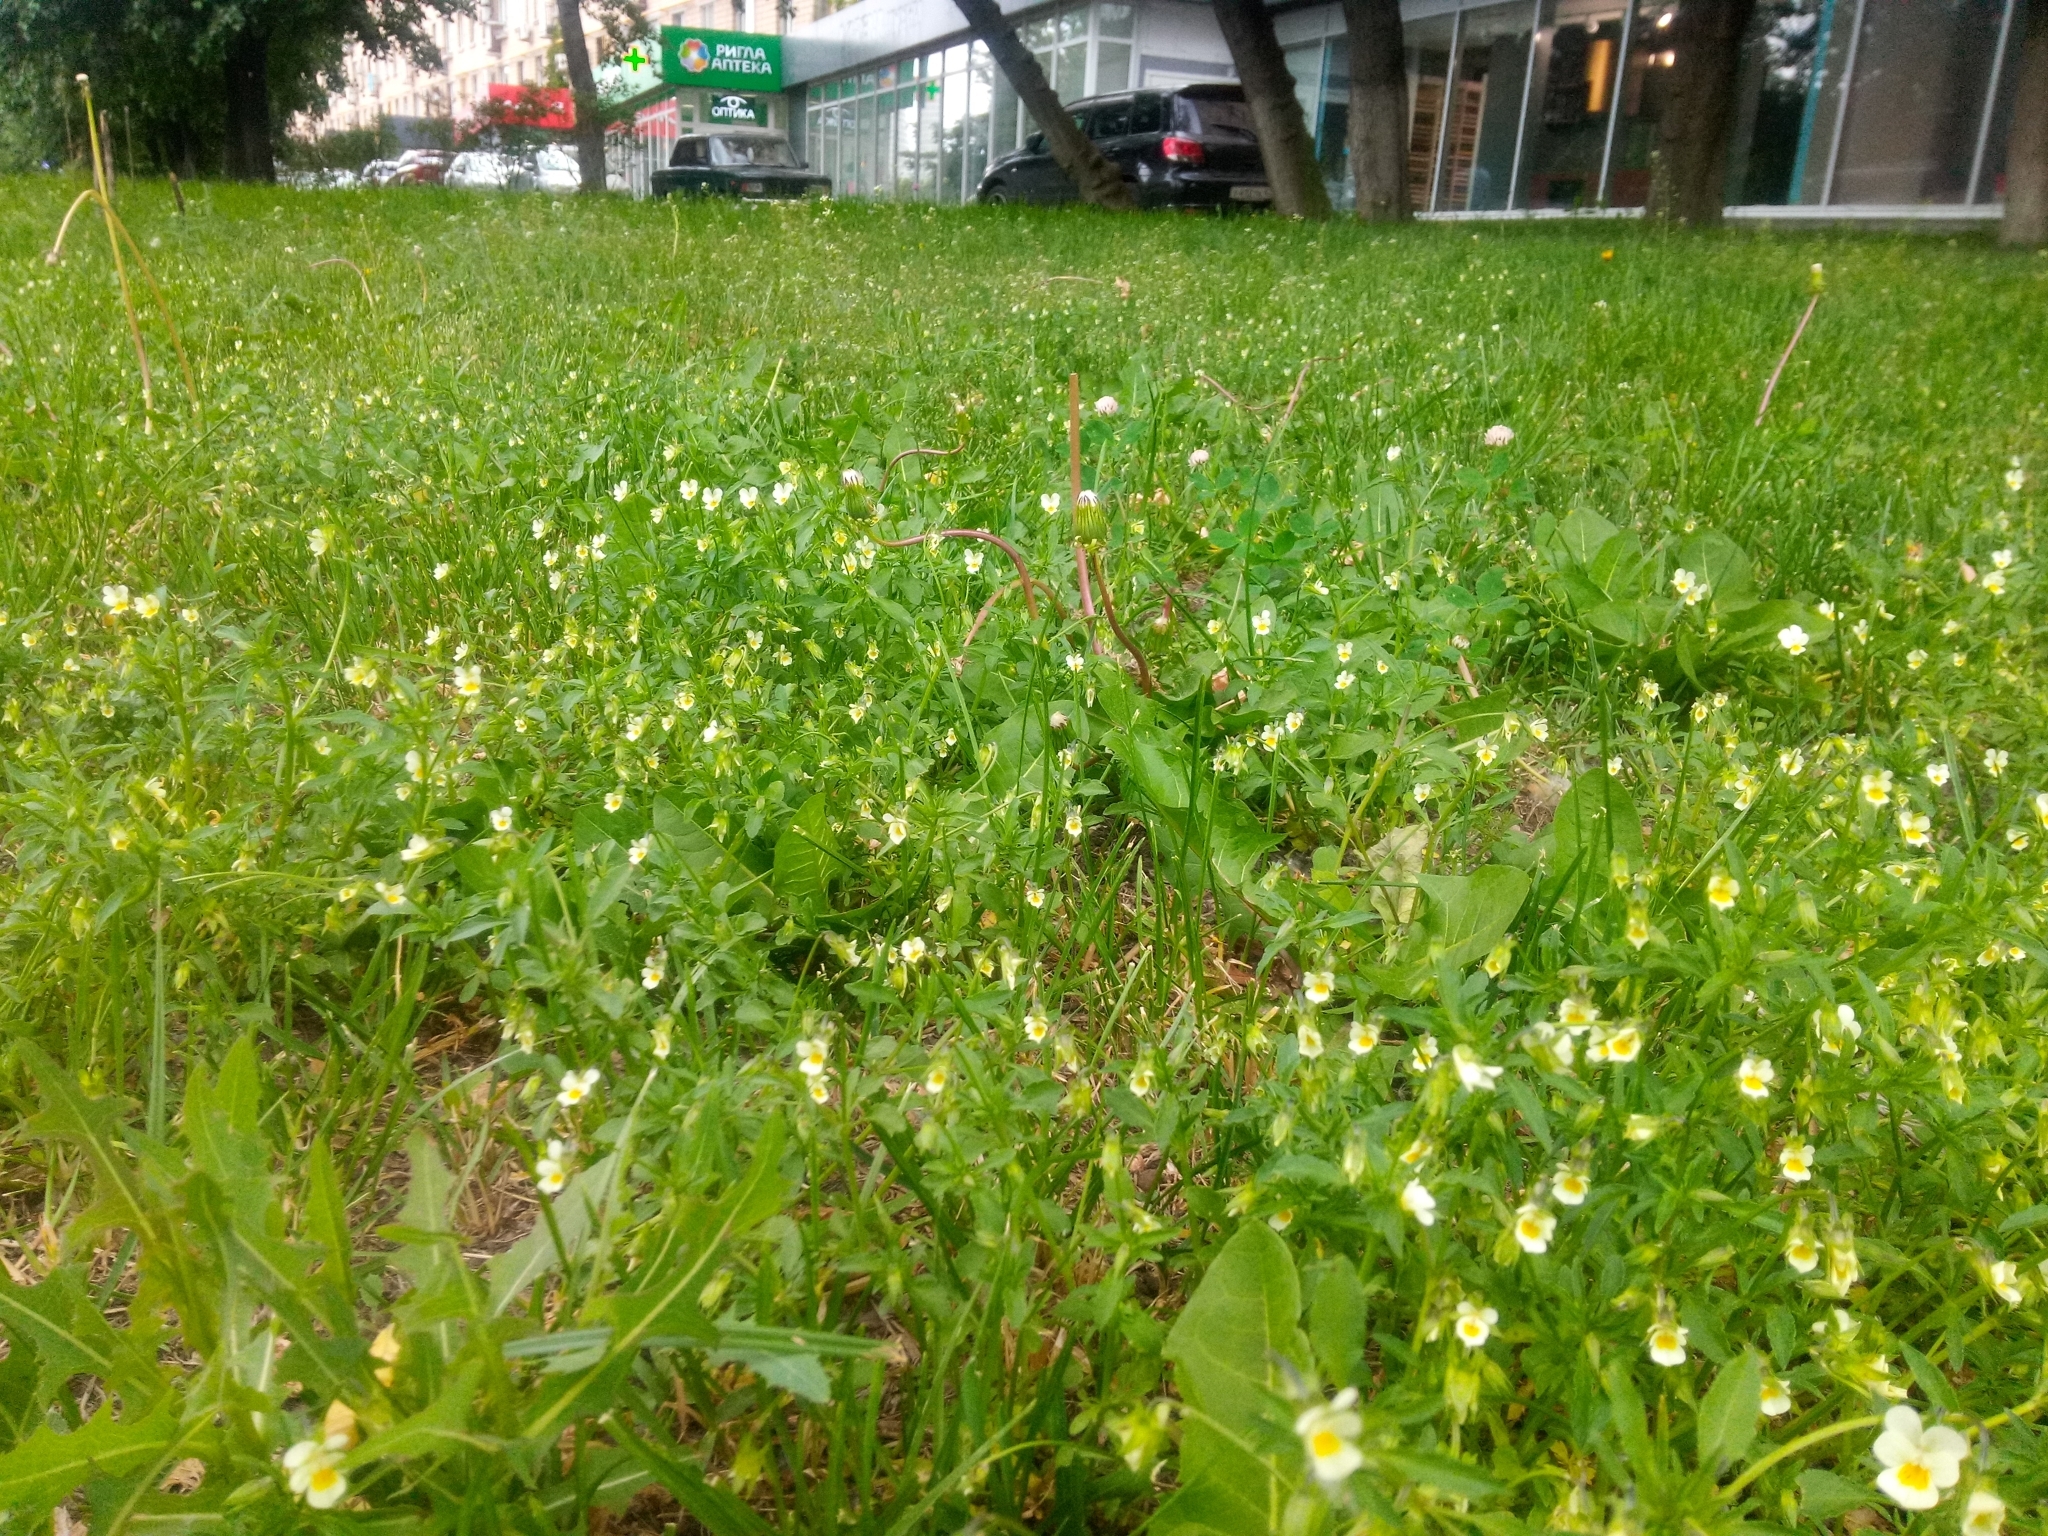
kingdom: Plantae
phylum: Tracheophyta
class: Magnoliopsida
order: Malpighiales
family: Violaceae
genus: Viola
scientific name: Viola arvensis
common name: Field pansy
